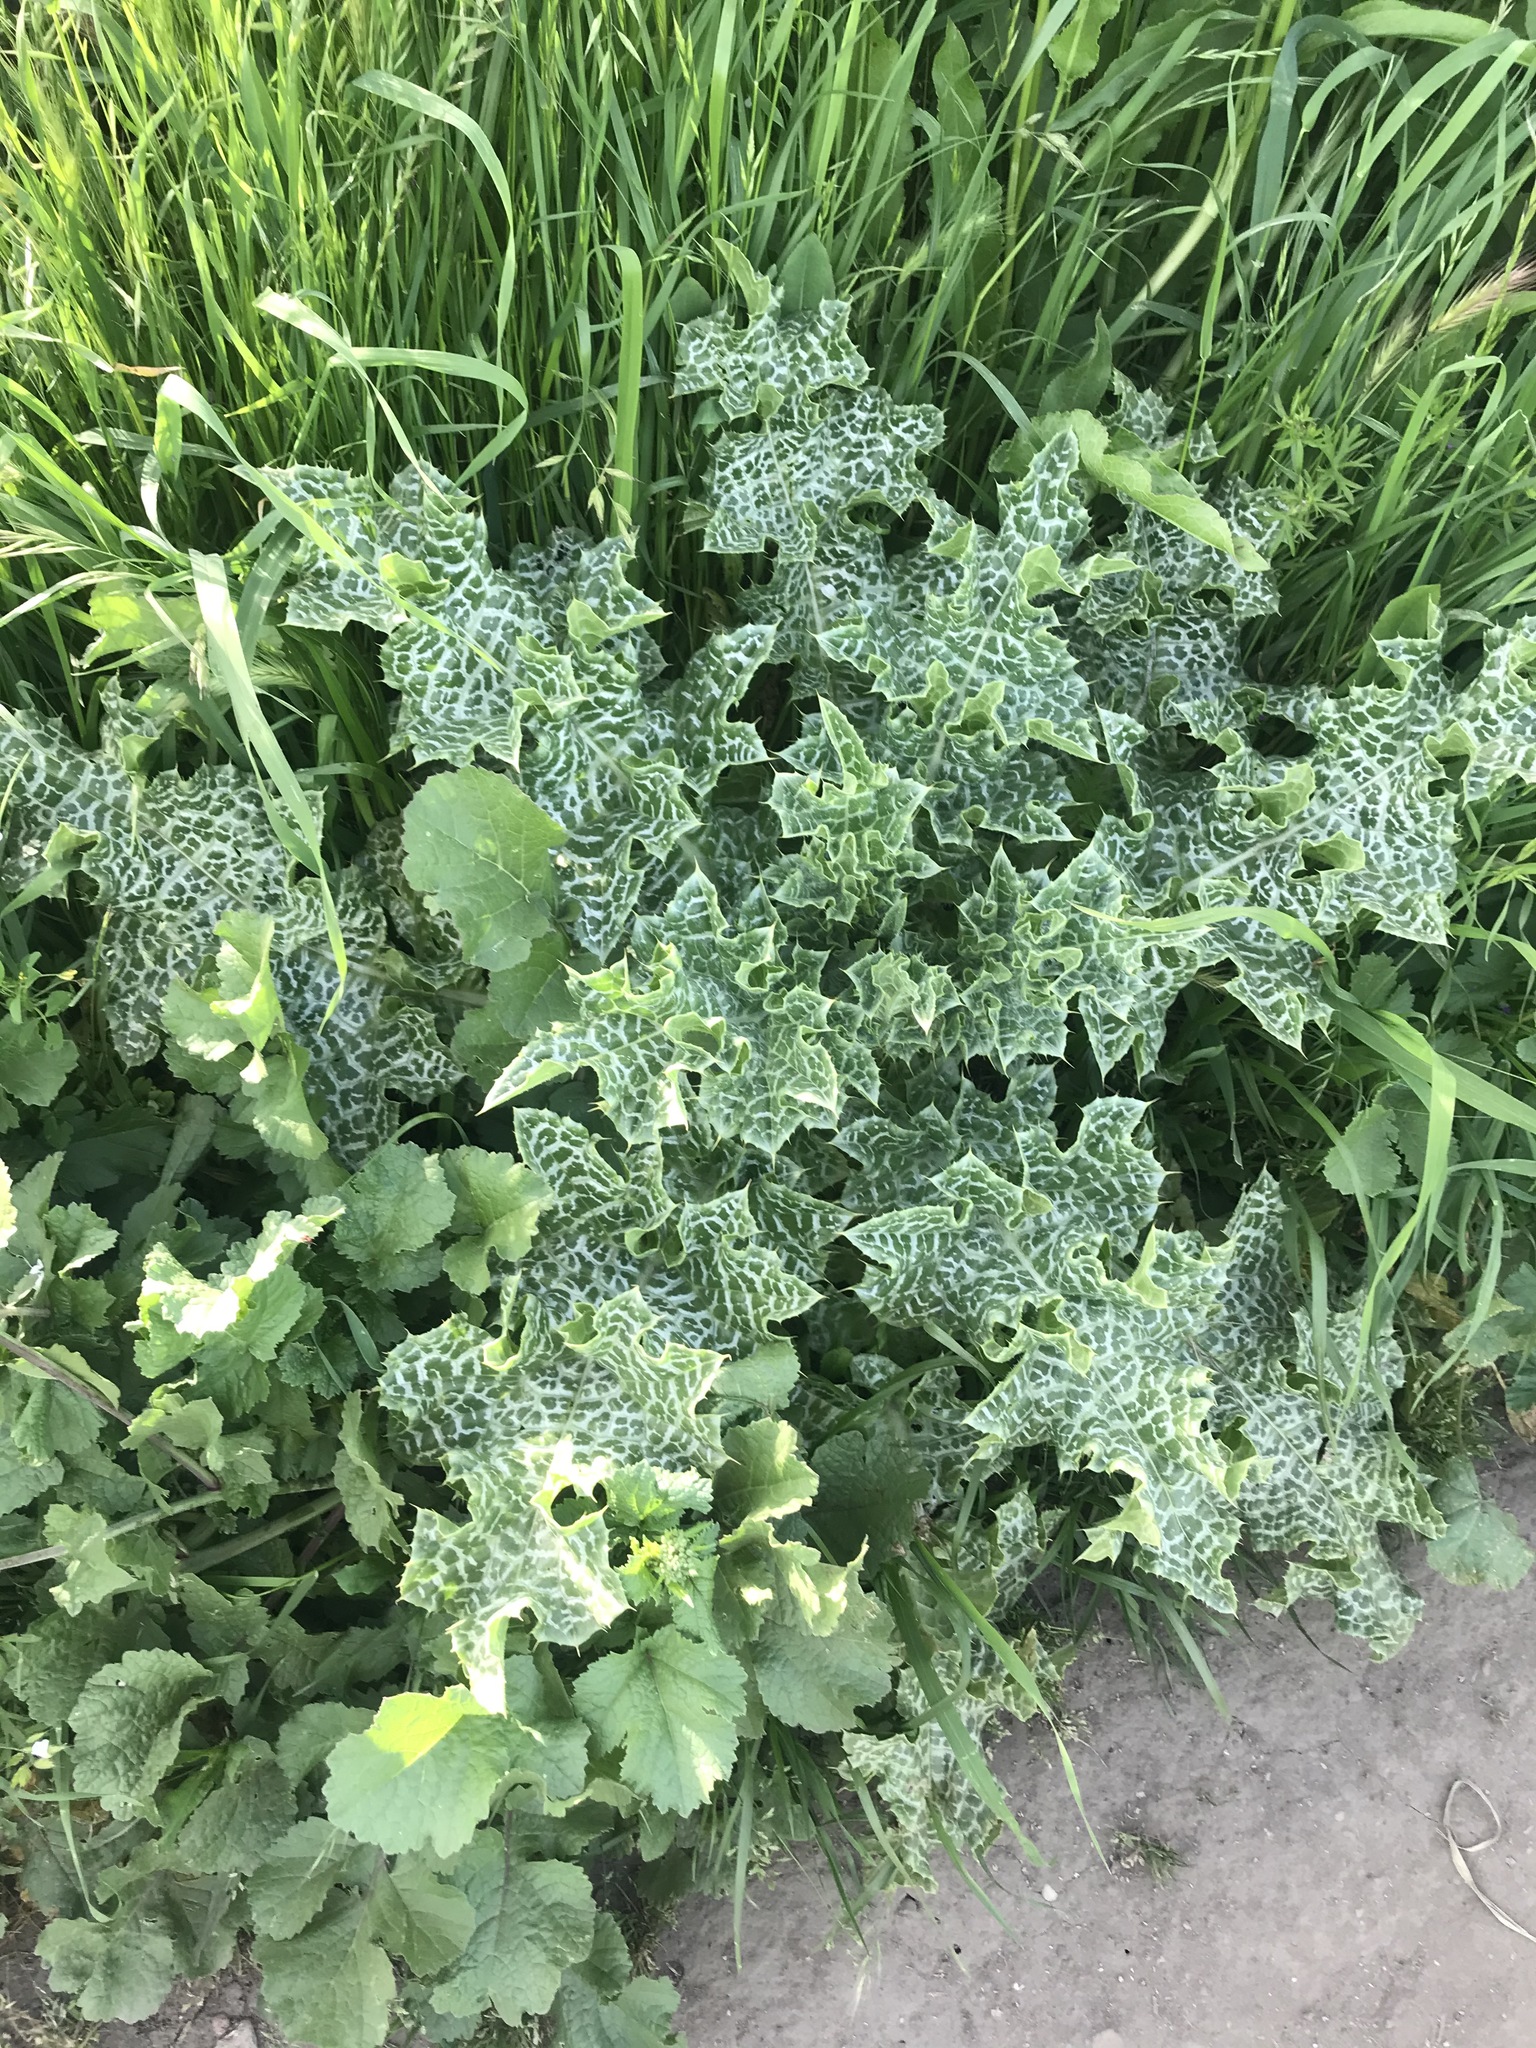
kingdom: Plantae
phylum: Tracheophyta
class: Magnoliopsida
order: Asterales
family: Asteraceae
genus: Silybum
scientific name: Silybum marianum
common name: Milk thistle
